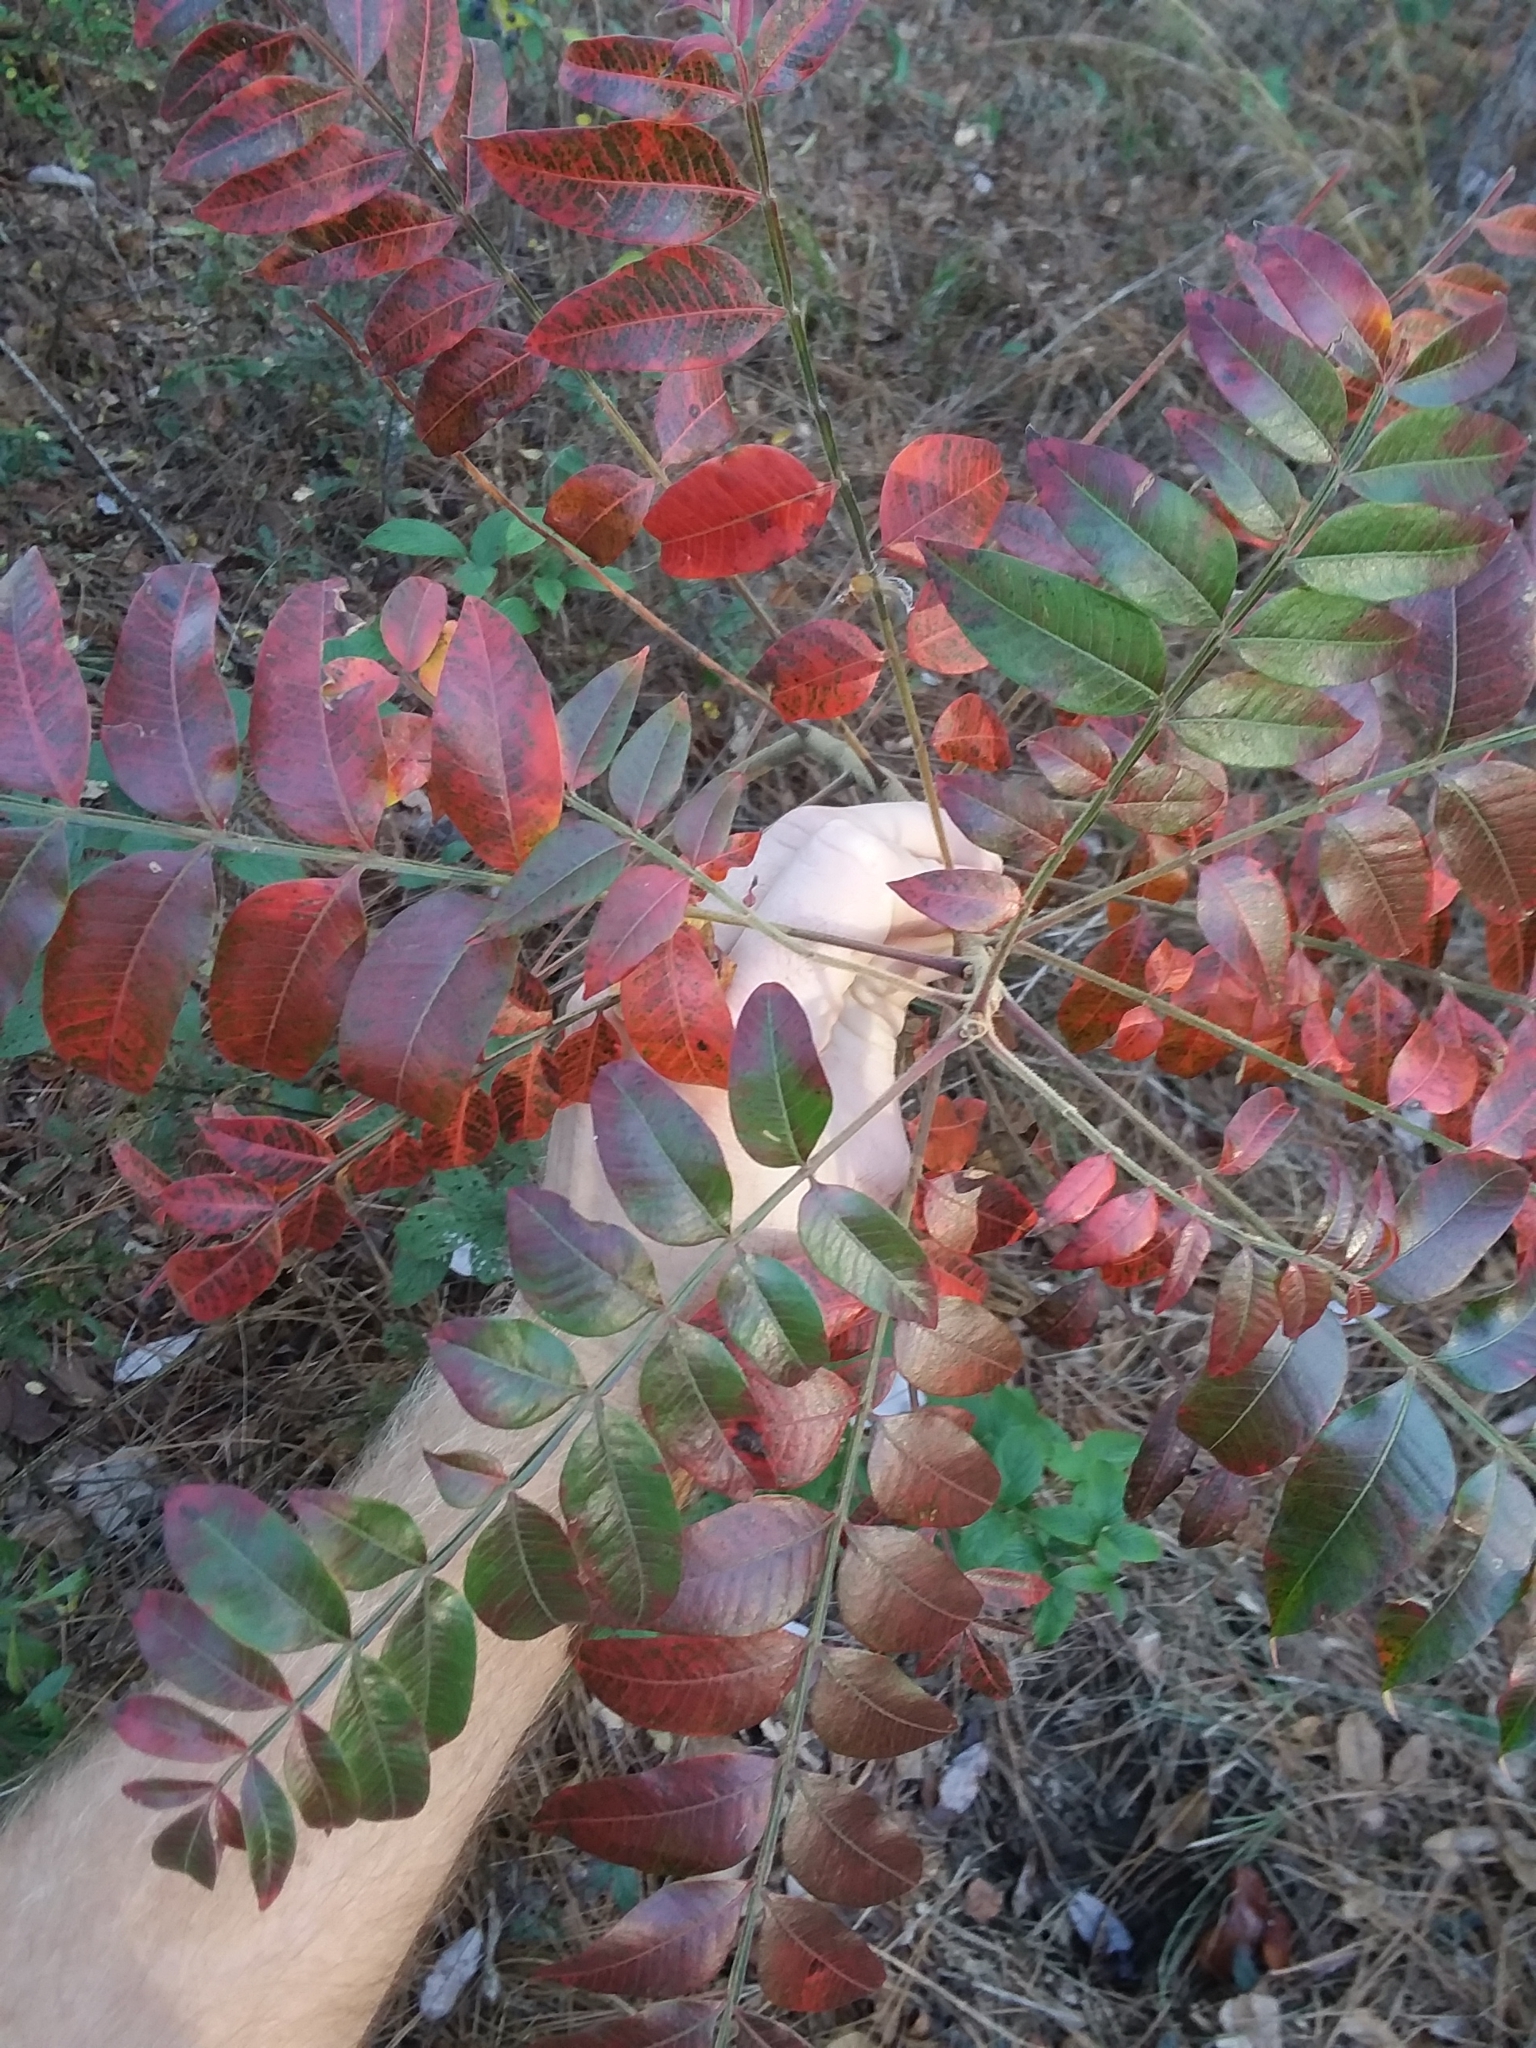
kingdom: Plantae
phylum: Tracheophyta
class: Magnoliopsida
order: Sapindales
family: Anacardiaceae
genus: Rhus
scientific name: Rhus copallina
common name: Shining sumac
